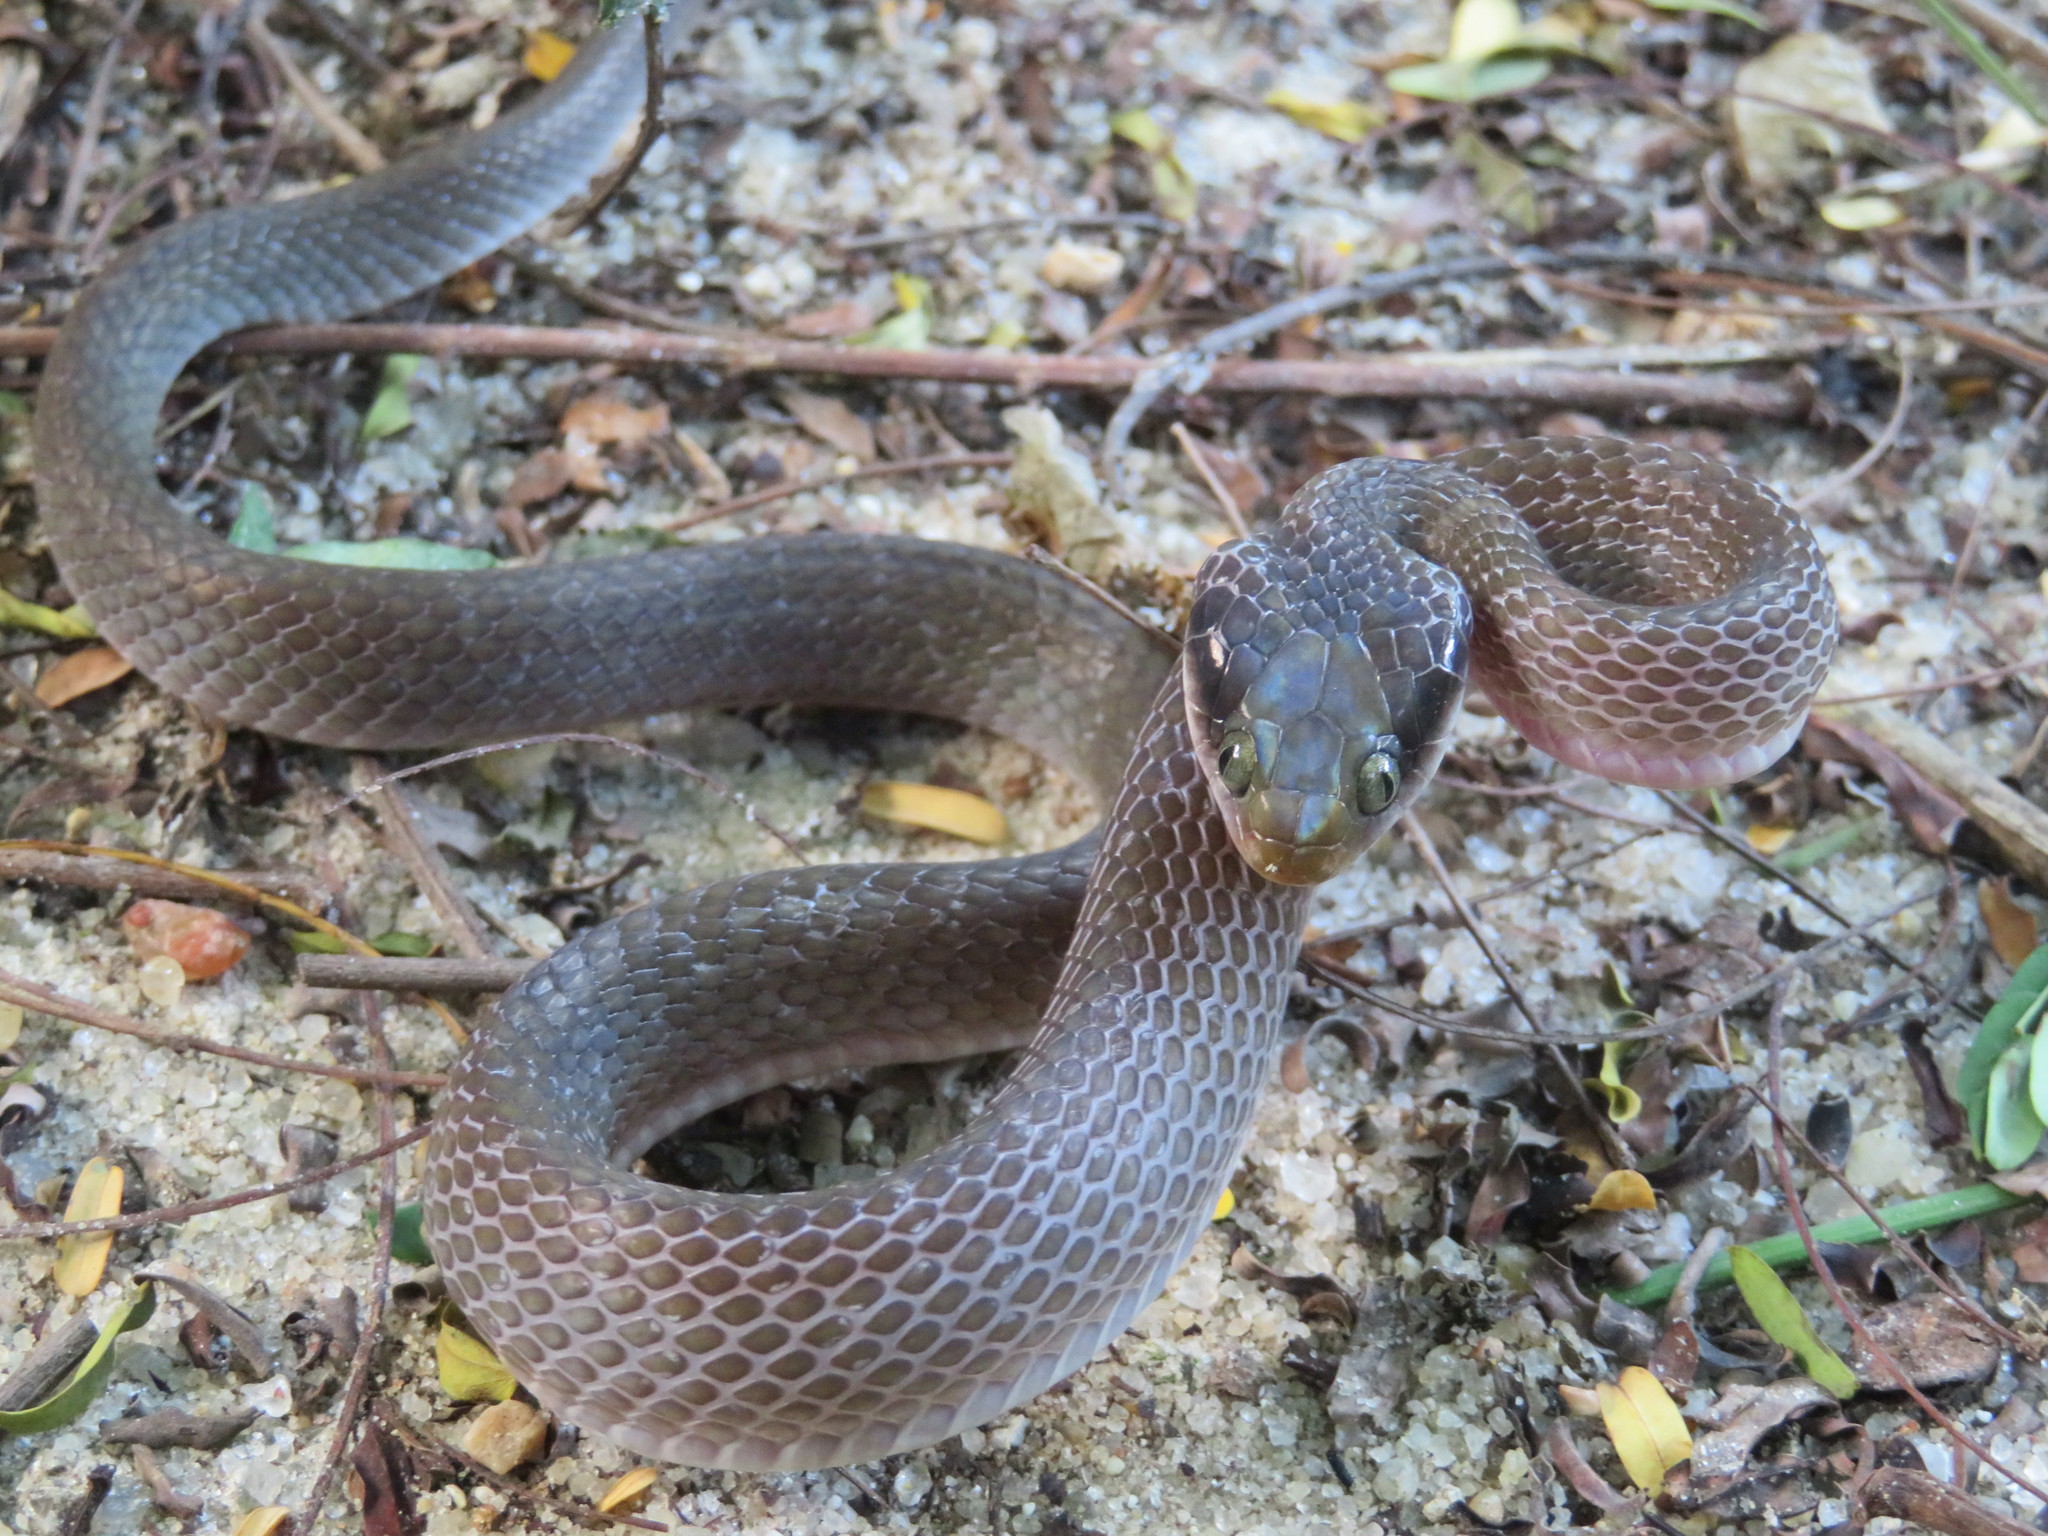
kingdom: Animalia
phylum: Chordata
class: Squamata
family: Colubridae
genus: Crotaphopeltis
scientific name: Crotaphopeltis hotamboeia
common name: Red-lipped snake
